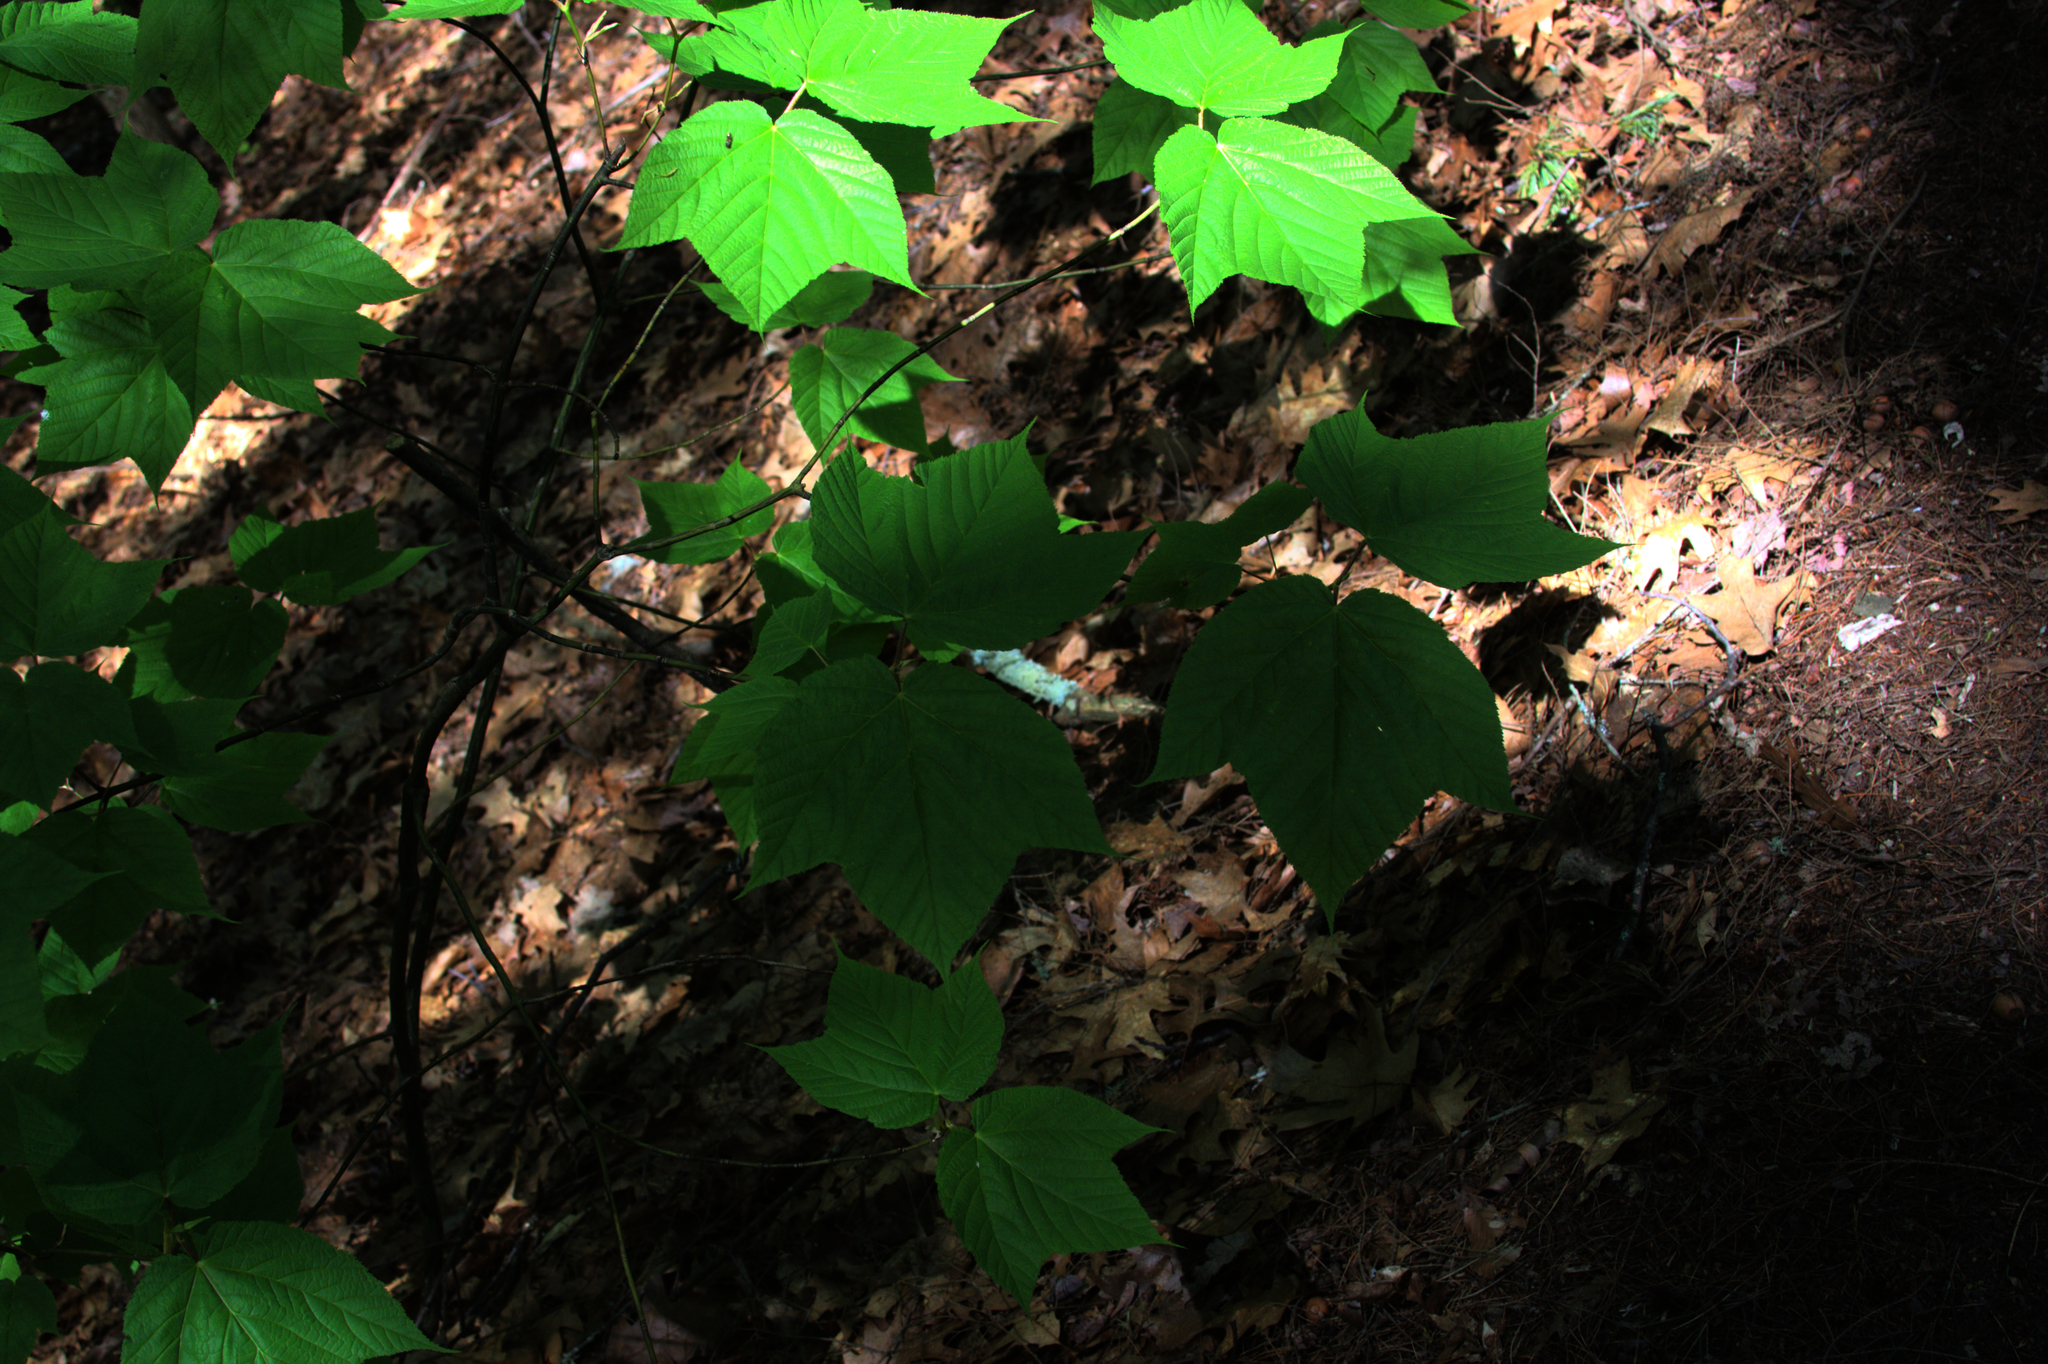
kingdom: Plantae
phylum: Tracheophyta
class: Magnoliopsida
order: Sapindales
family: Sapindaceae
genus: Acer
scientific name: Acer pensylvanicum
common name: Moosewood
